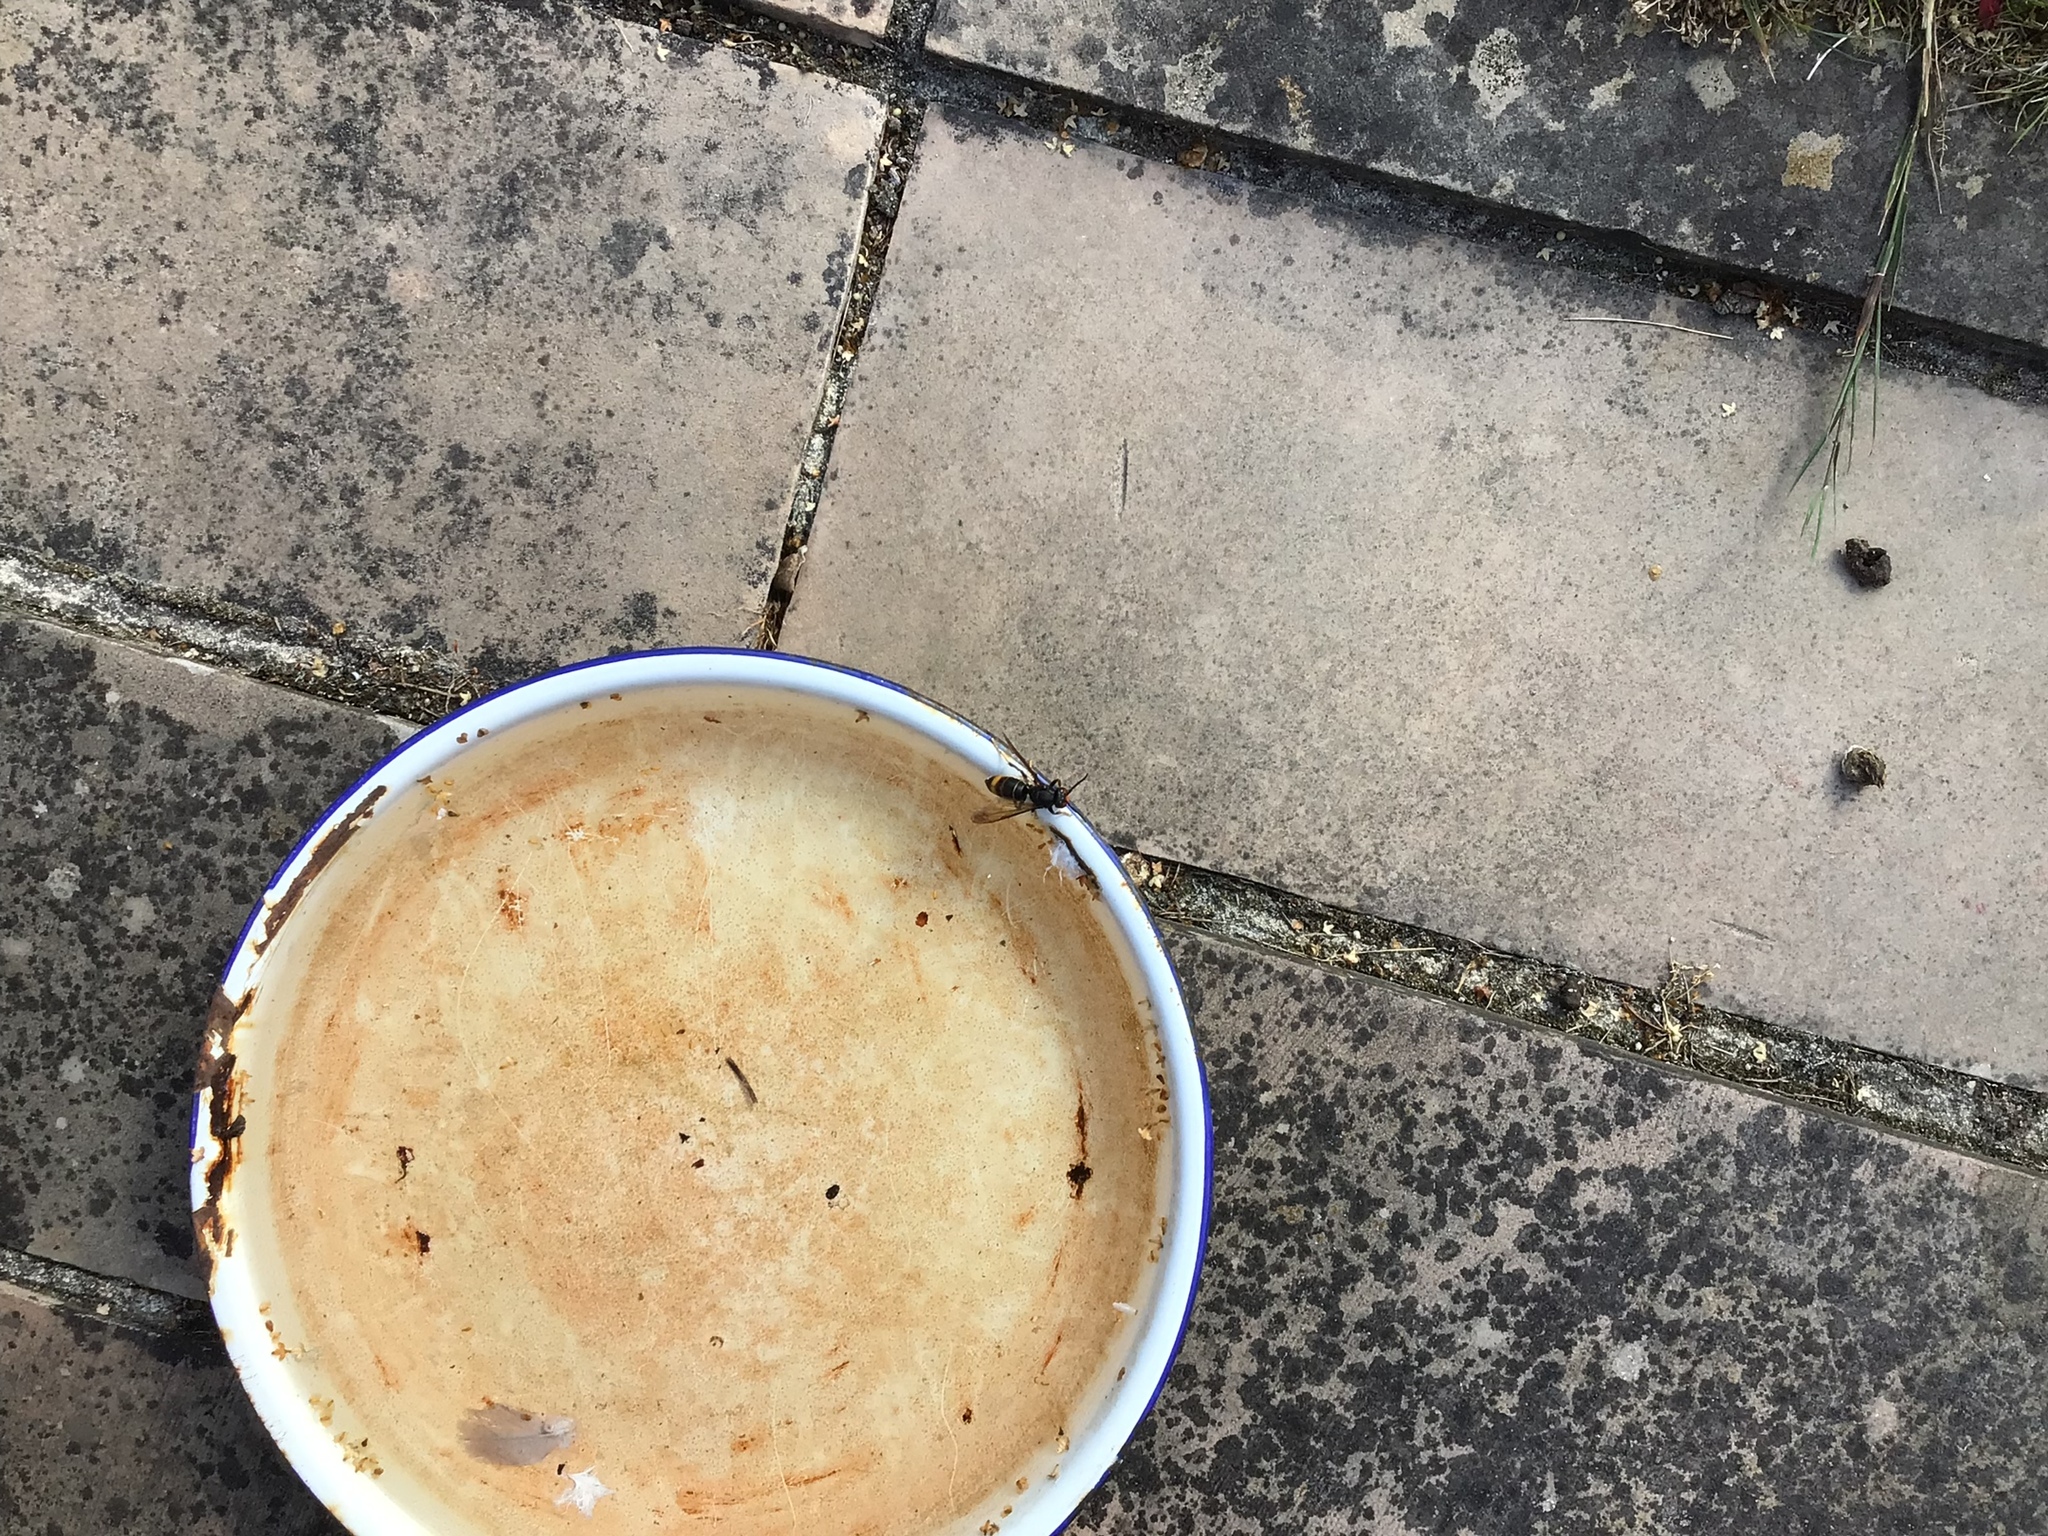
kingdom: Animalia
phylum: Arthropoda
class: Insecta
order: Hymenoptera
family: Vespidae
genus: Vespa
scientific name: Vespa velutina
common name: Asian hornet
